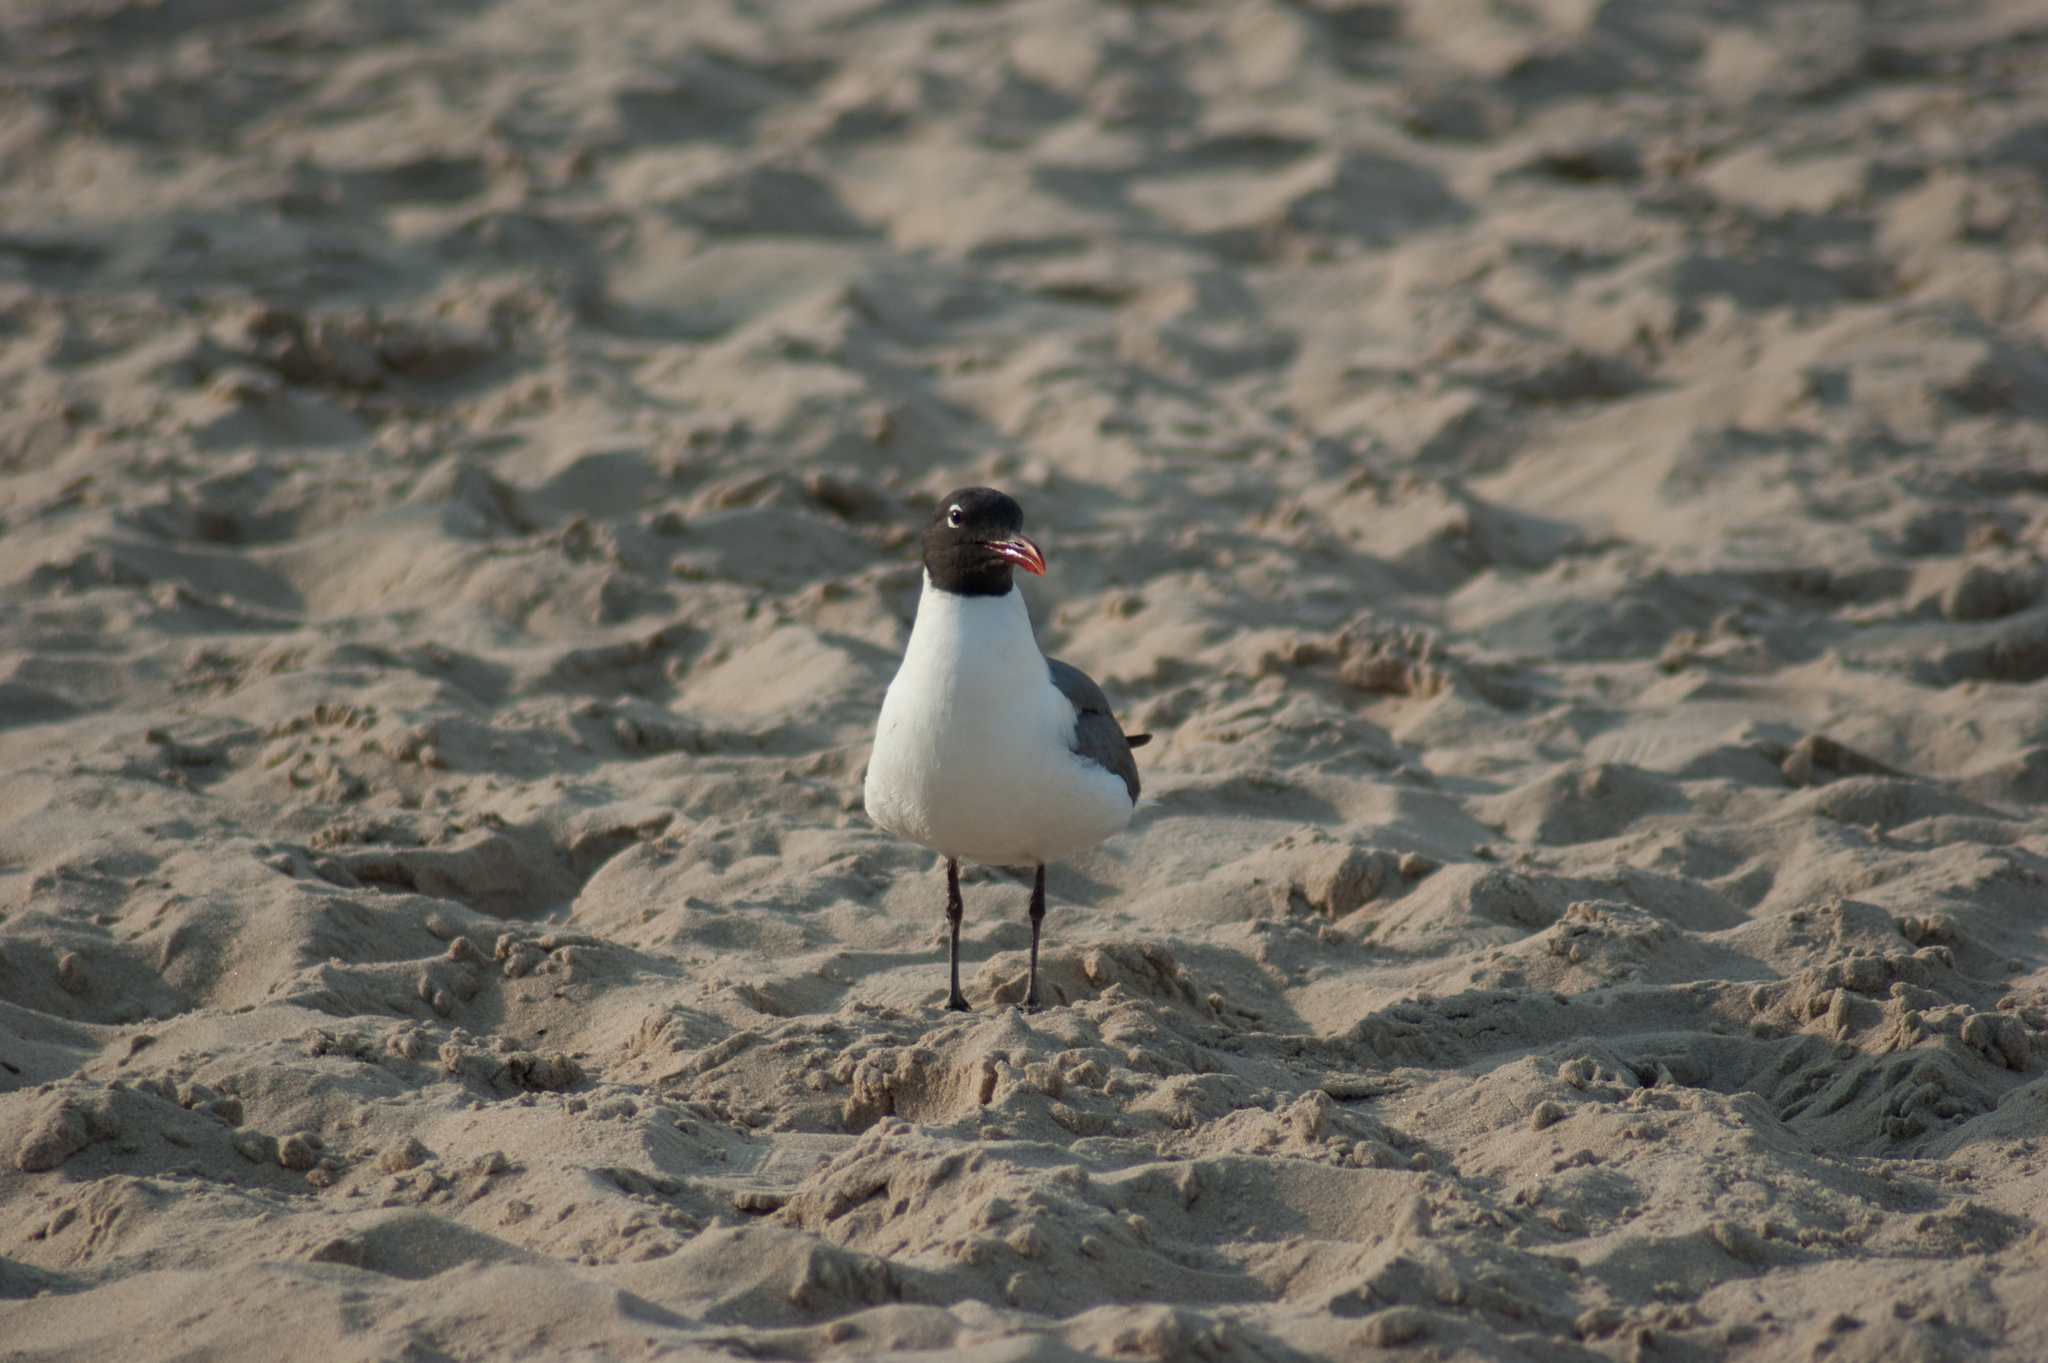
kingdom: Animalia
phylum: Chordata
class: Aves
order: Charadriiformes
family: Laridae
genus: Leucophaeus
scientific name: Leucophaeus atricilla
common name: Laughing gull
